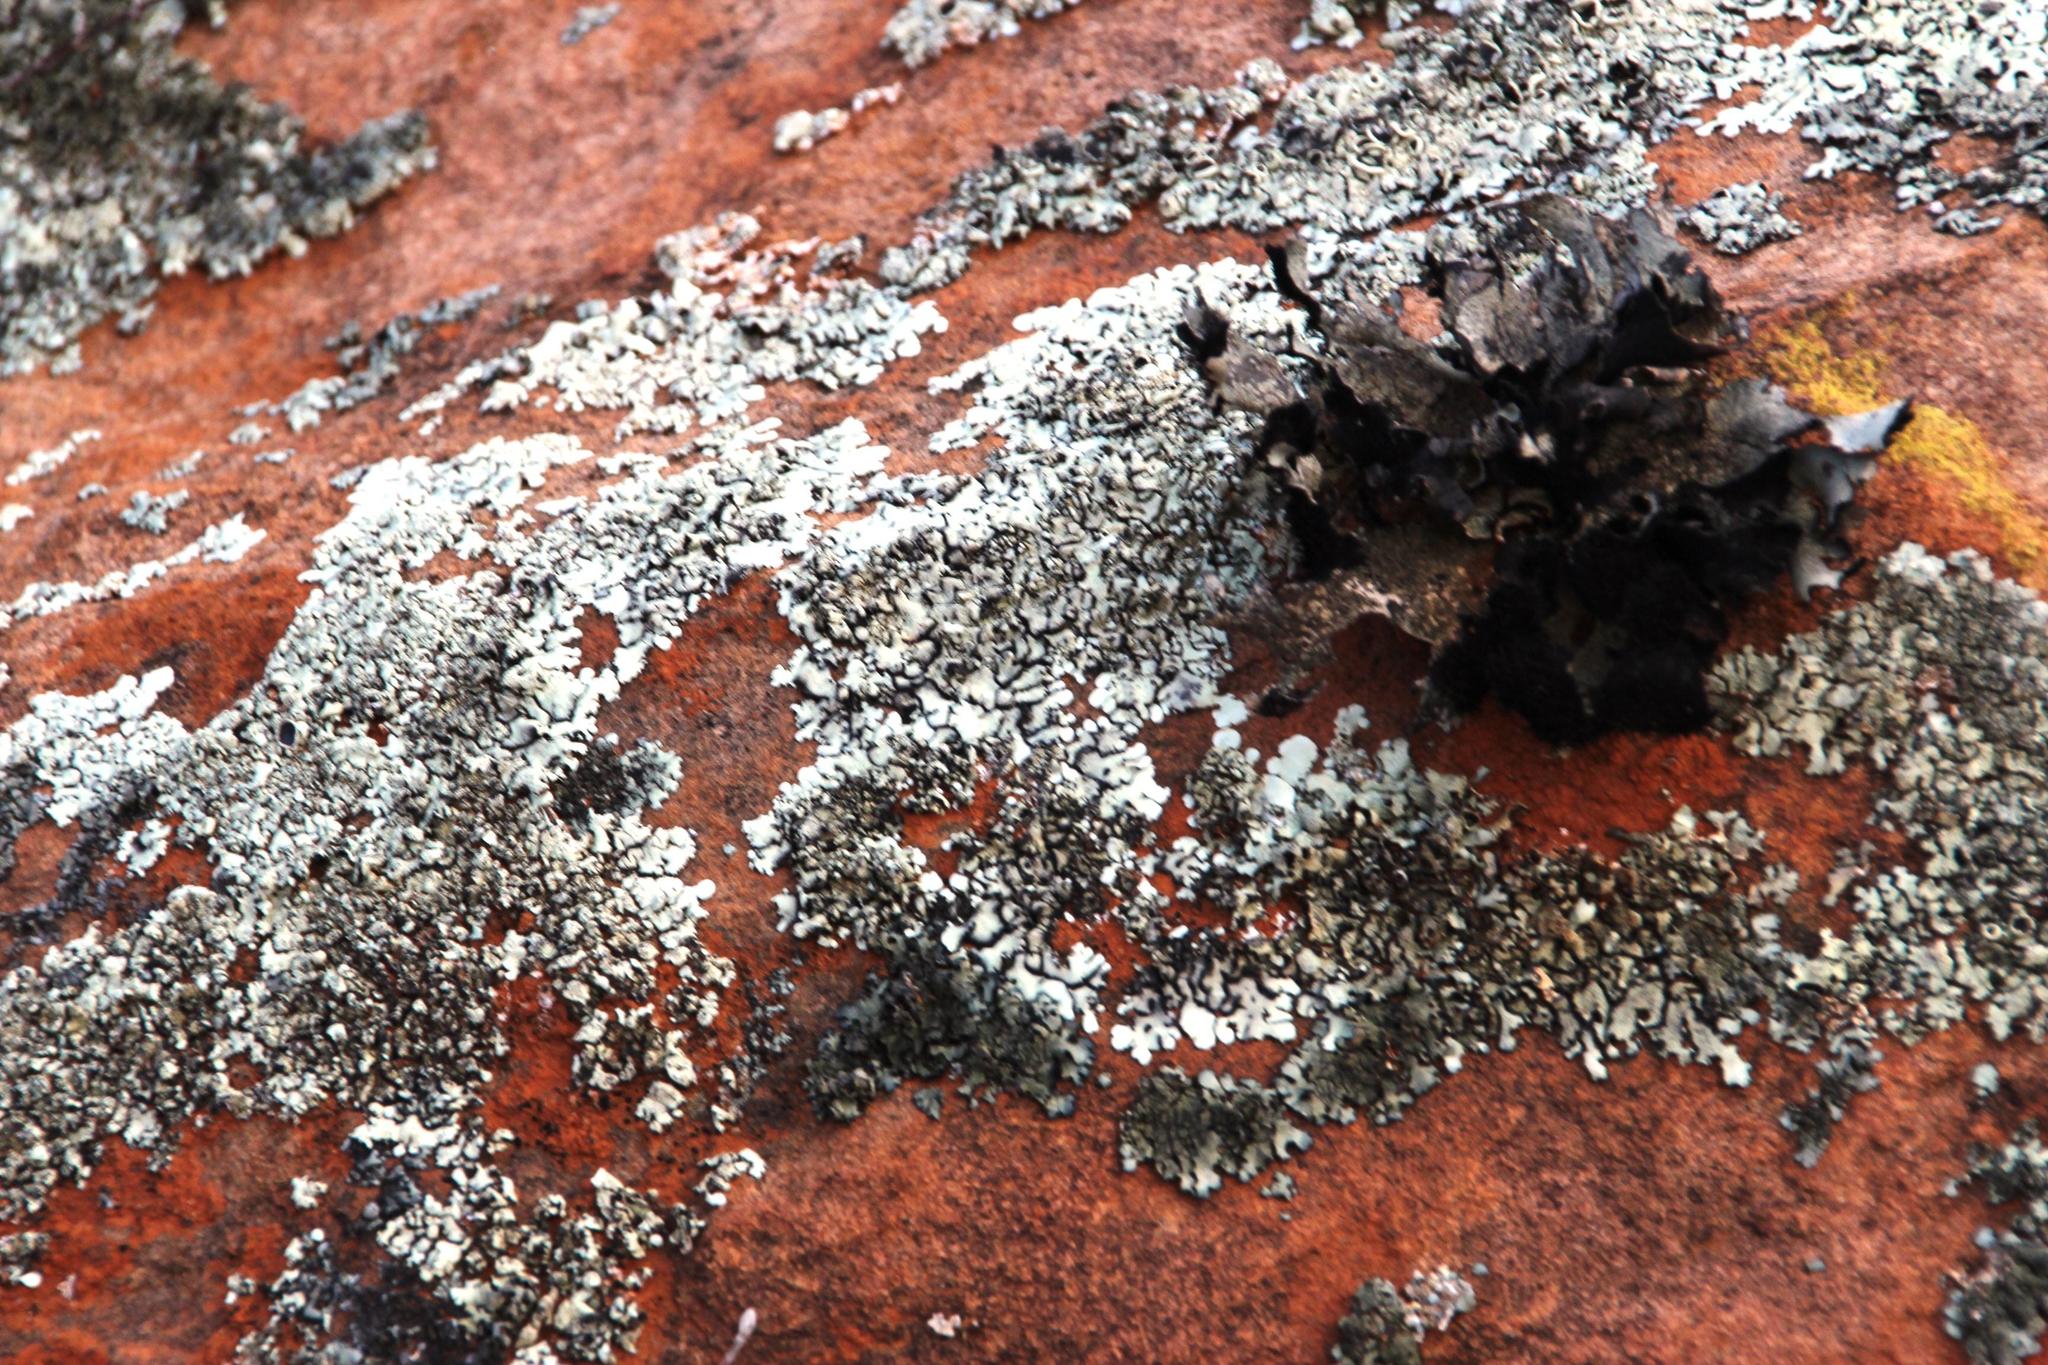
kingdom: Fungi
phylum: Ascomycota
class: Lecanoromycetes
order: Lecanorales
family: Parmeliaceae
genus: Xanthoparmelia
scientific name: Xanthoparmelia hottentotta
